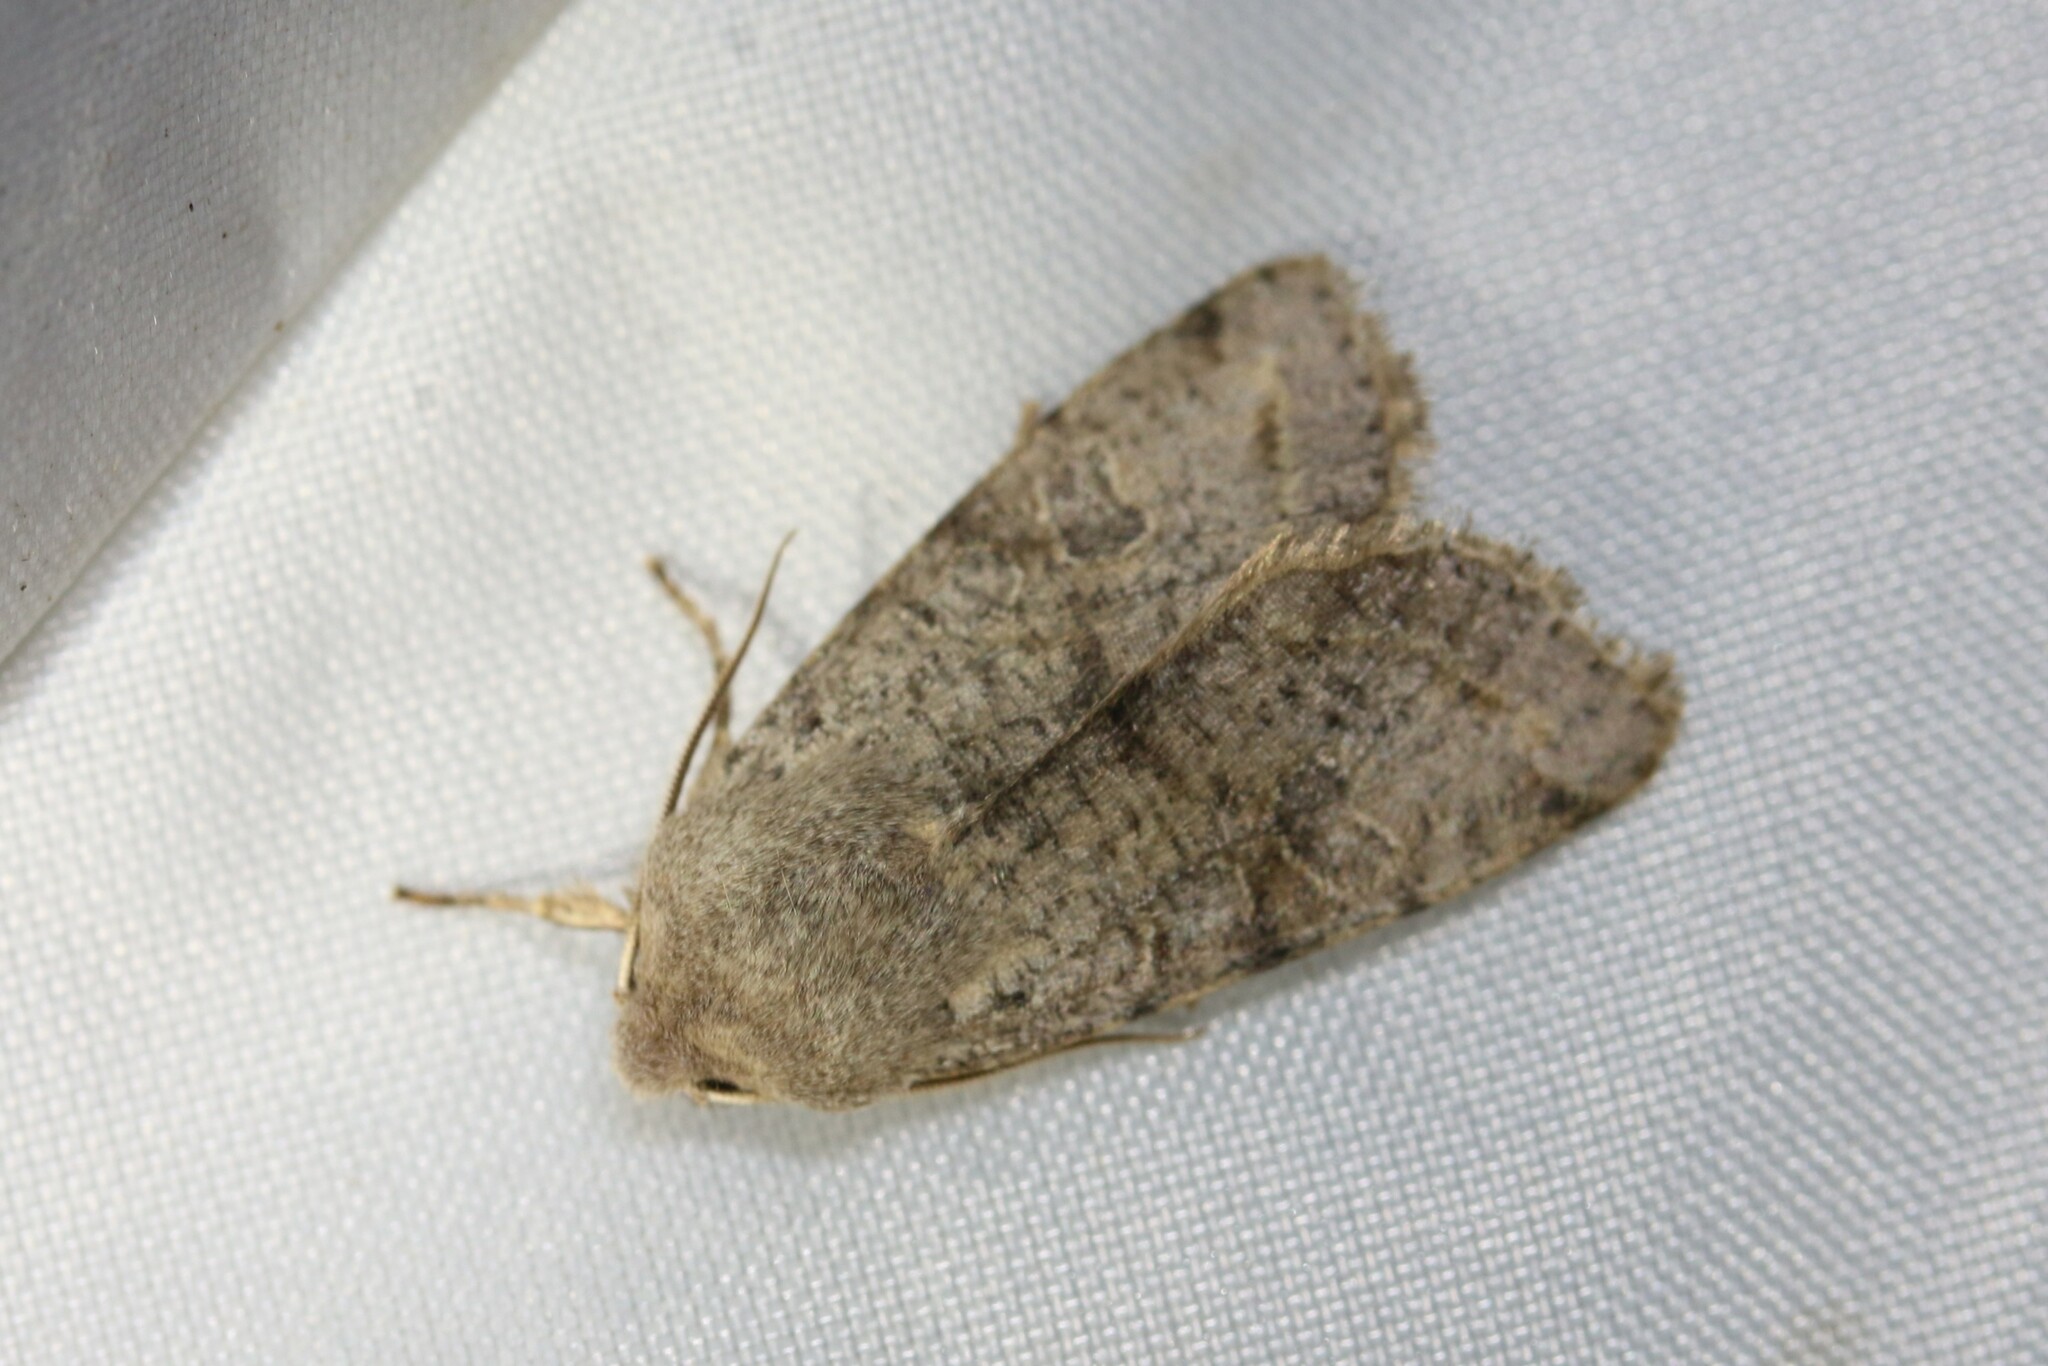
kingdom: Animalia
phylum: Arthropoda
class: Insecta
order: Lepidoptera
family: Noctuidae
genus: Orthosia
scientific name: Orthosia incerta
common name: Clouded drab
